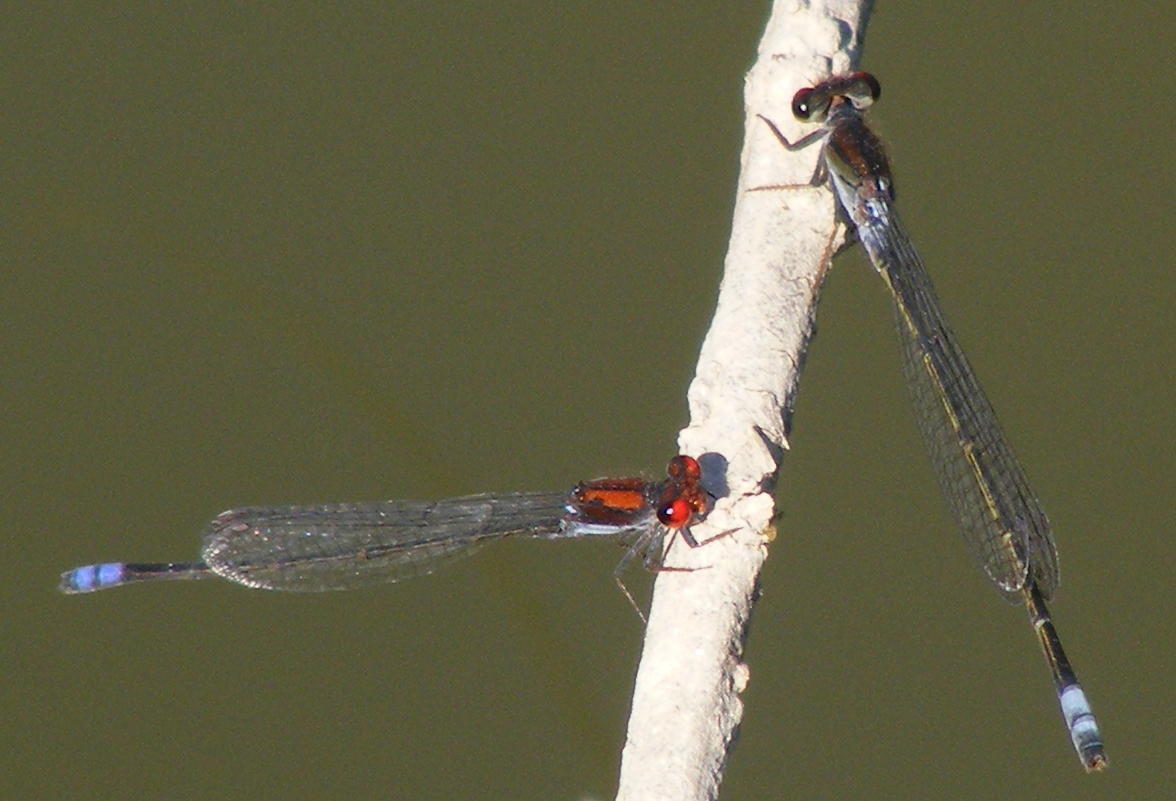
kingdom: Animalia
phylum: Arthropoda
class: Insecta
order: Odonata
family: Coenagrionidae
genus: Pseudagrion
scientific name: Pseudagrion hamoni
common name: Swarthy sprite
